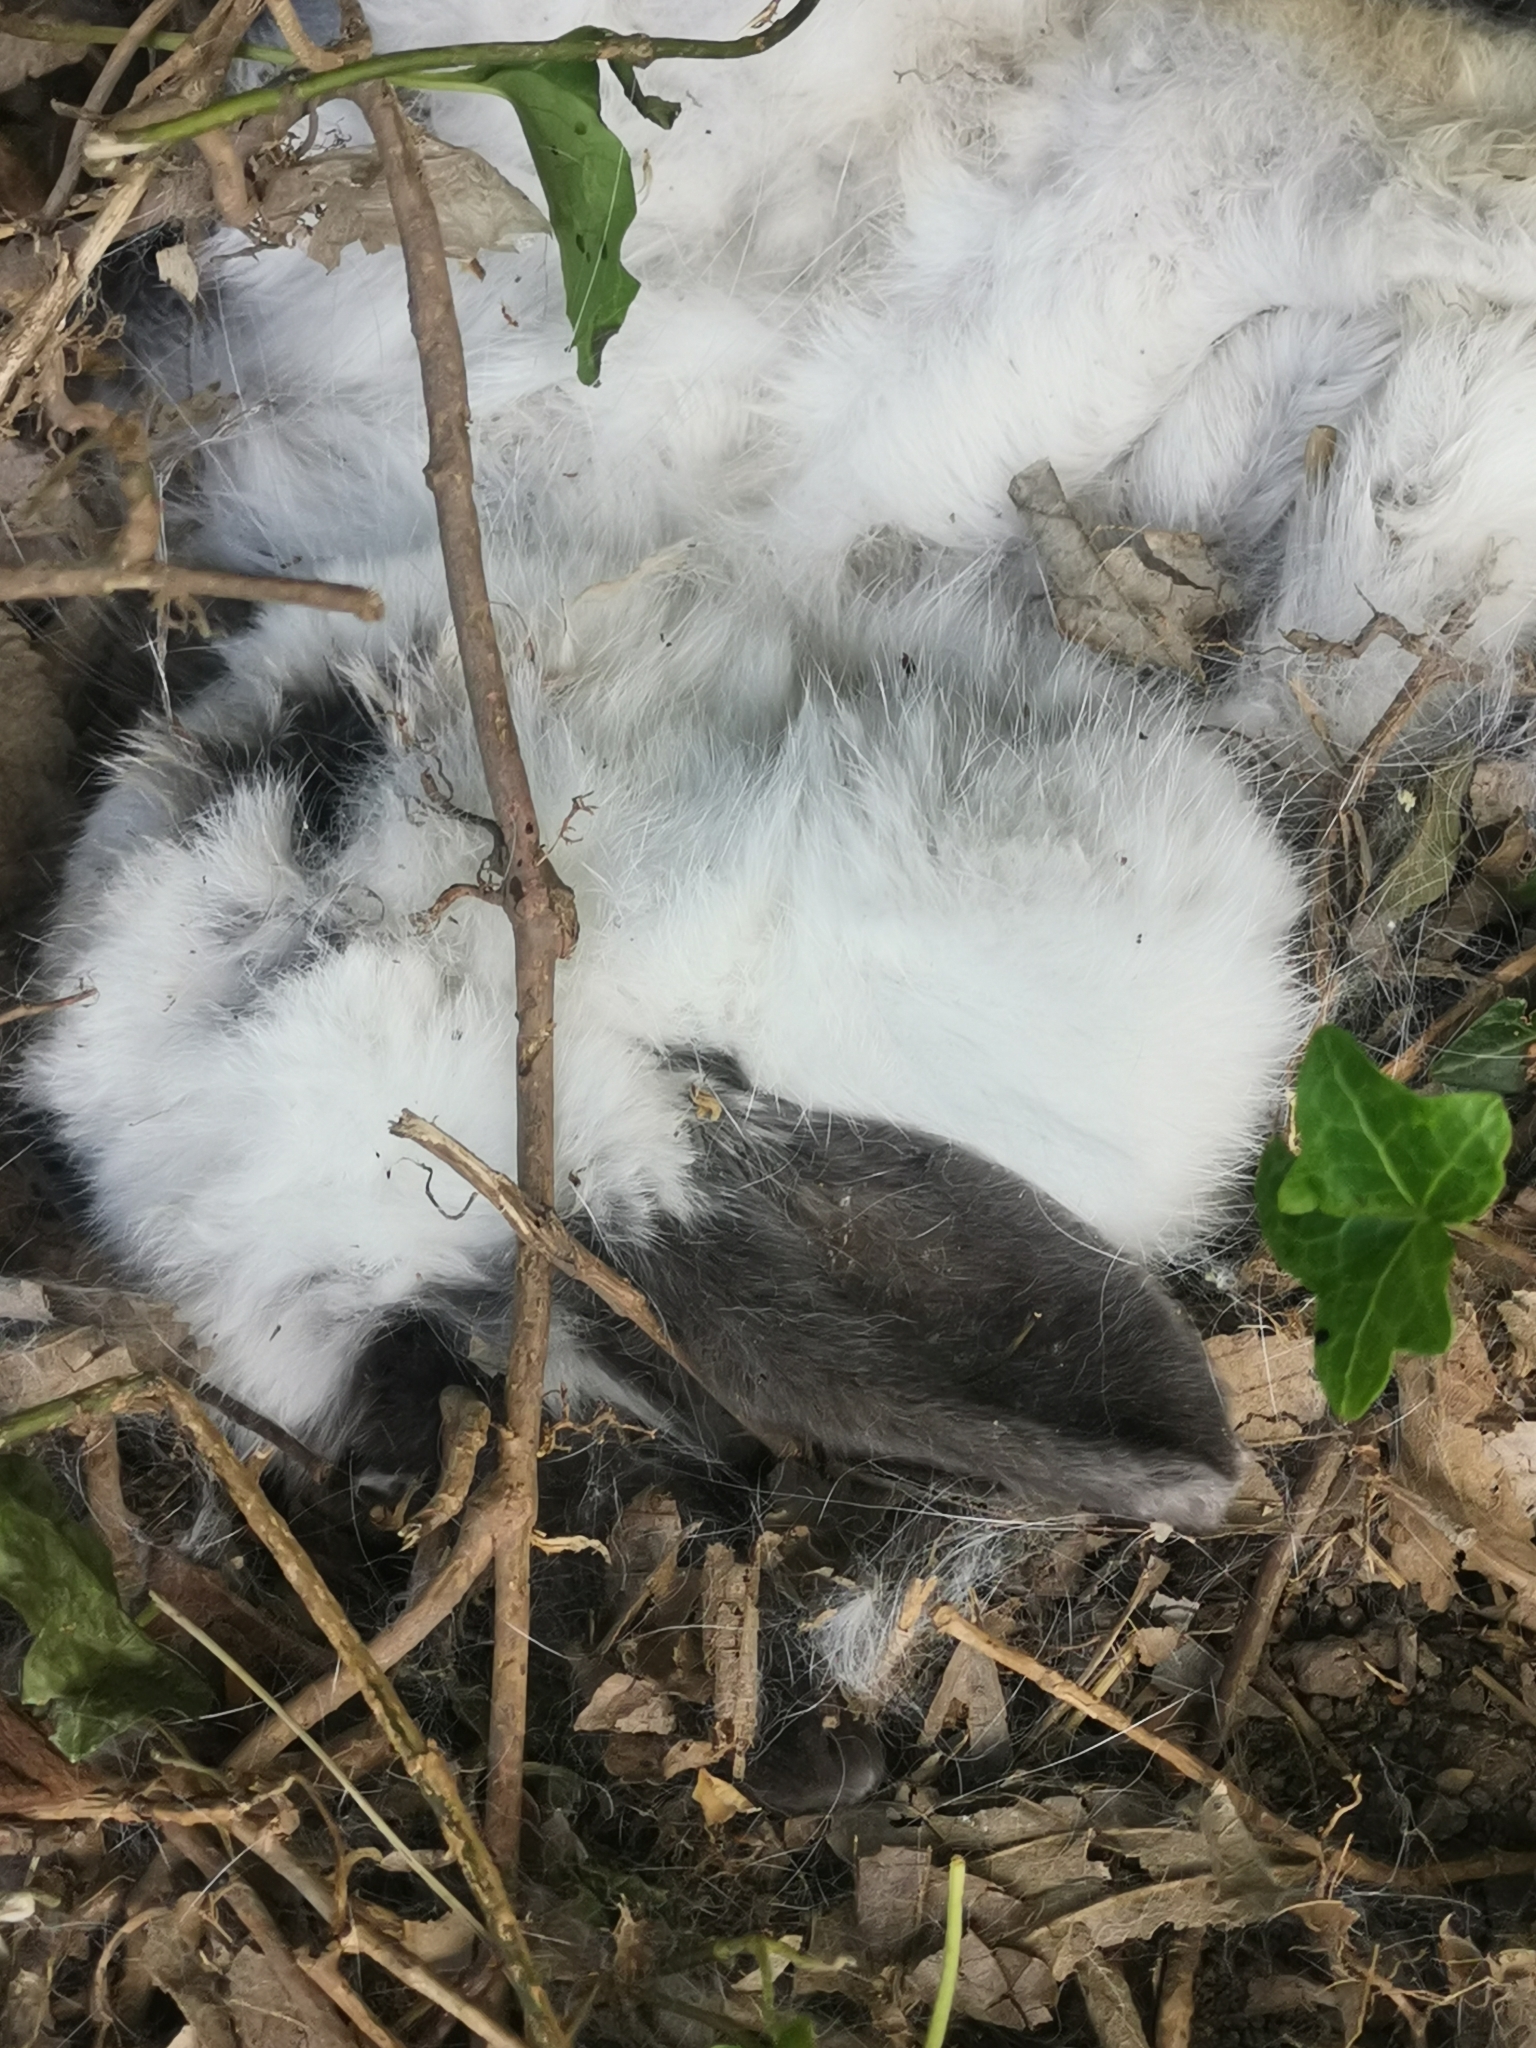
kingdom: Animalia
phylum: Chordata
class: Mammalia
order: Lagomorpha
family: Leporidae
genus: Oryctolagus
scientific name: Oryctolagus cuniculus
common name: European rabbit
